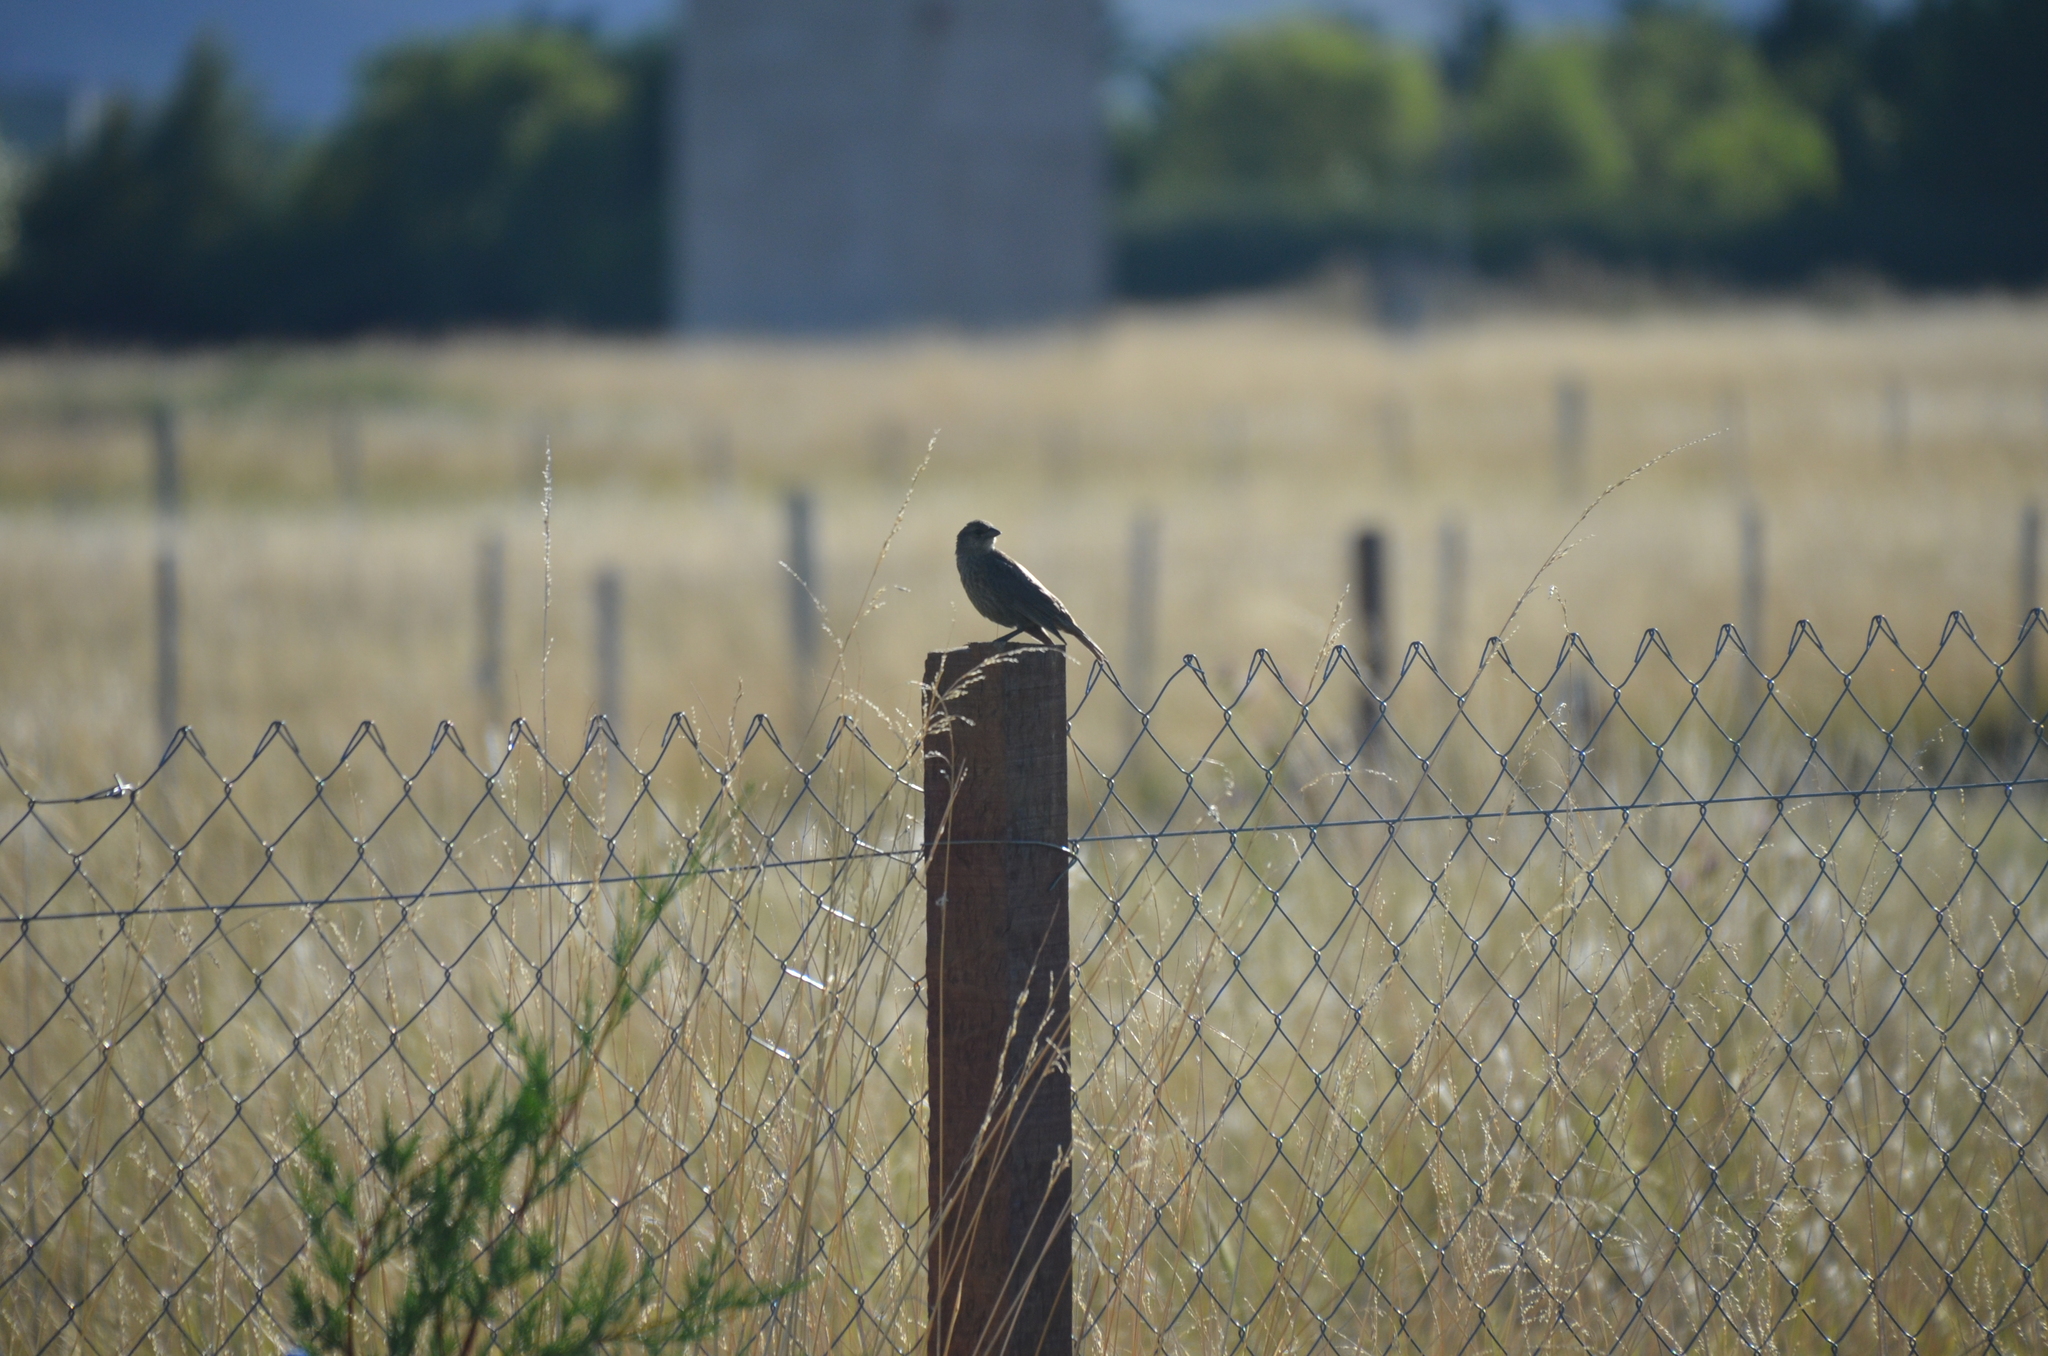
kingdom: Animalia
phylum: Chordata
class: Aves
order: Passeriformes
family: Icteridae
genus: Molothrus
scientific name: Molothrus bonariensis
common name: Shiny cowbird
